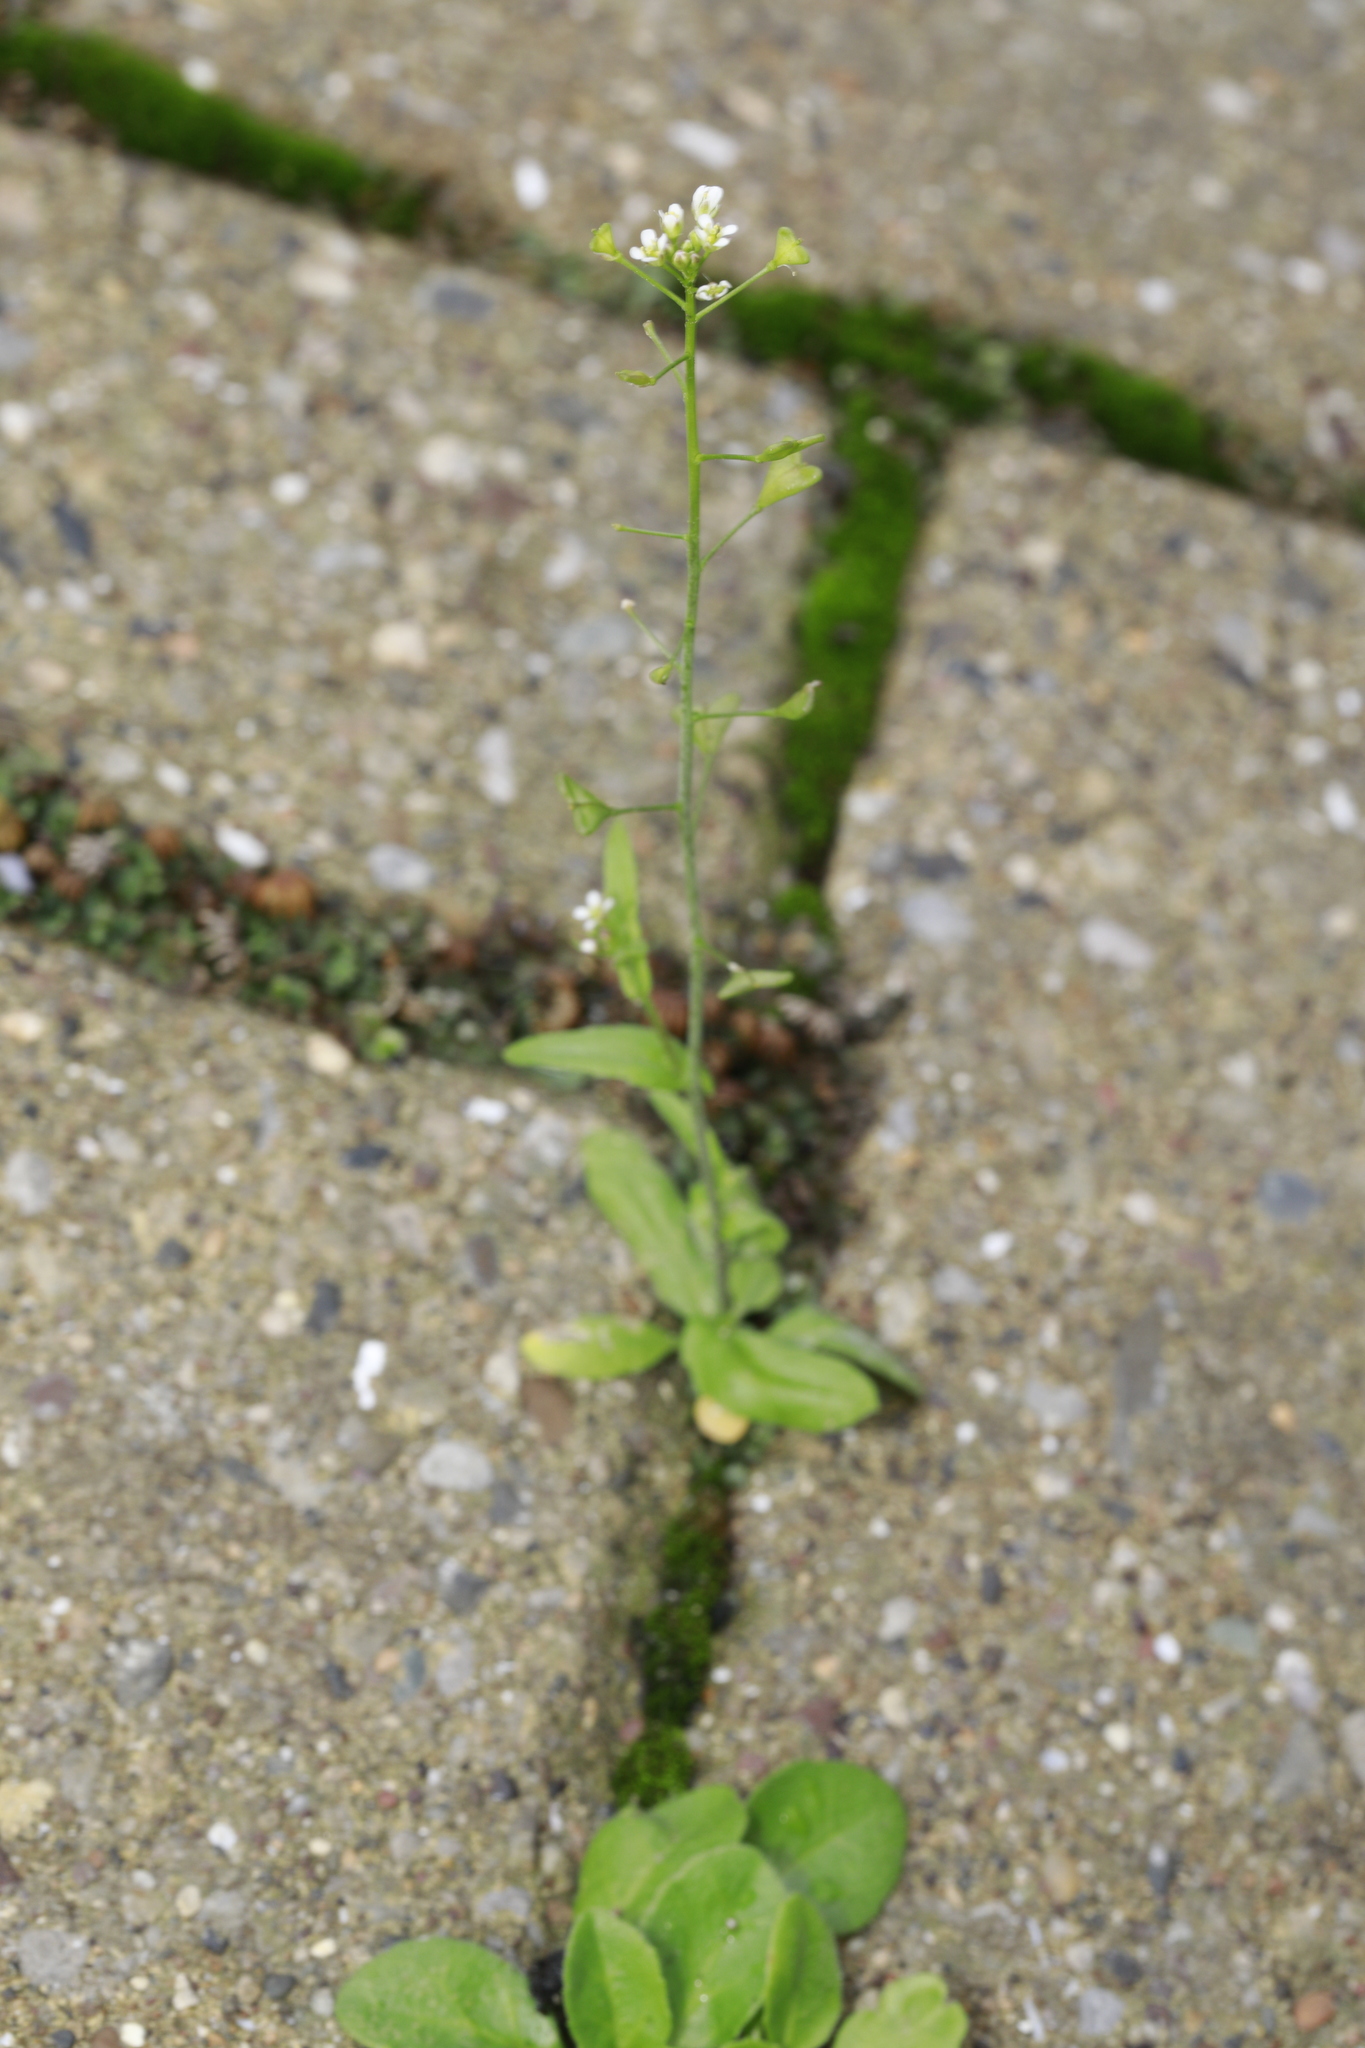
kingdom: Plantae
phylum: Tracheophyta
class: Magnoliopsida
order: Brassicales
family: Brassicaceae
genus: Capsella
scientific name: Capsella bursa-pastoris
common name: Shepherd's purse
